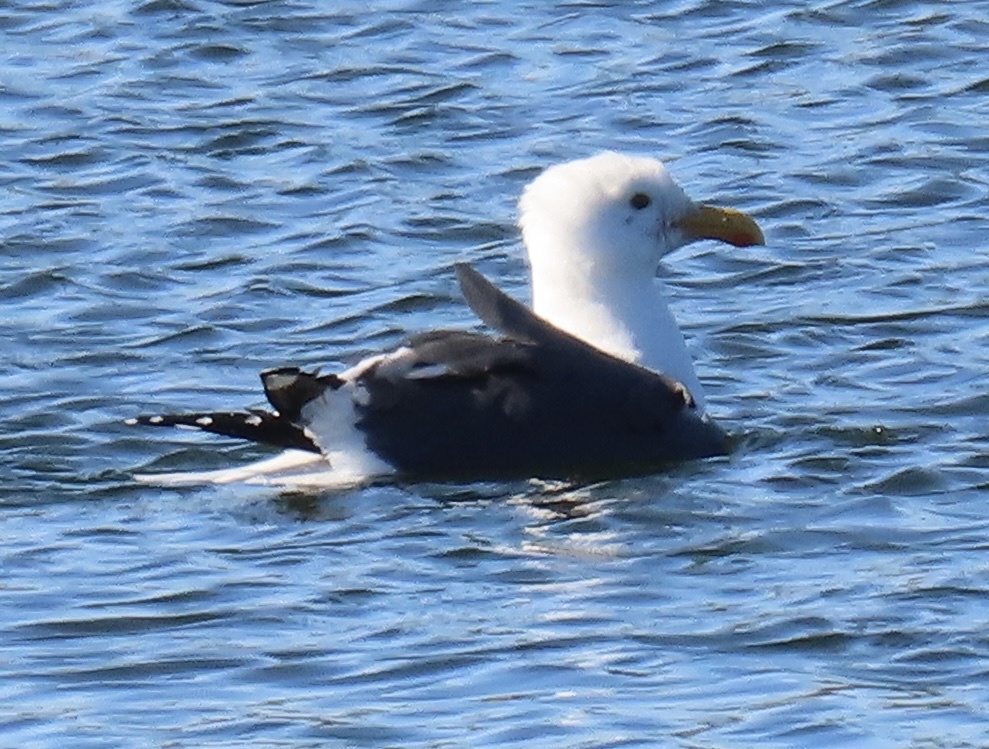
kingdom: Animalia
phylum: Chordata
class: Aves
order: Charadriiformes
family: Laridae
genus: Larus
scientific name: Larus occidentalis
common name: Western gull
